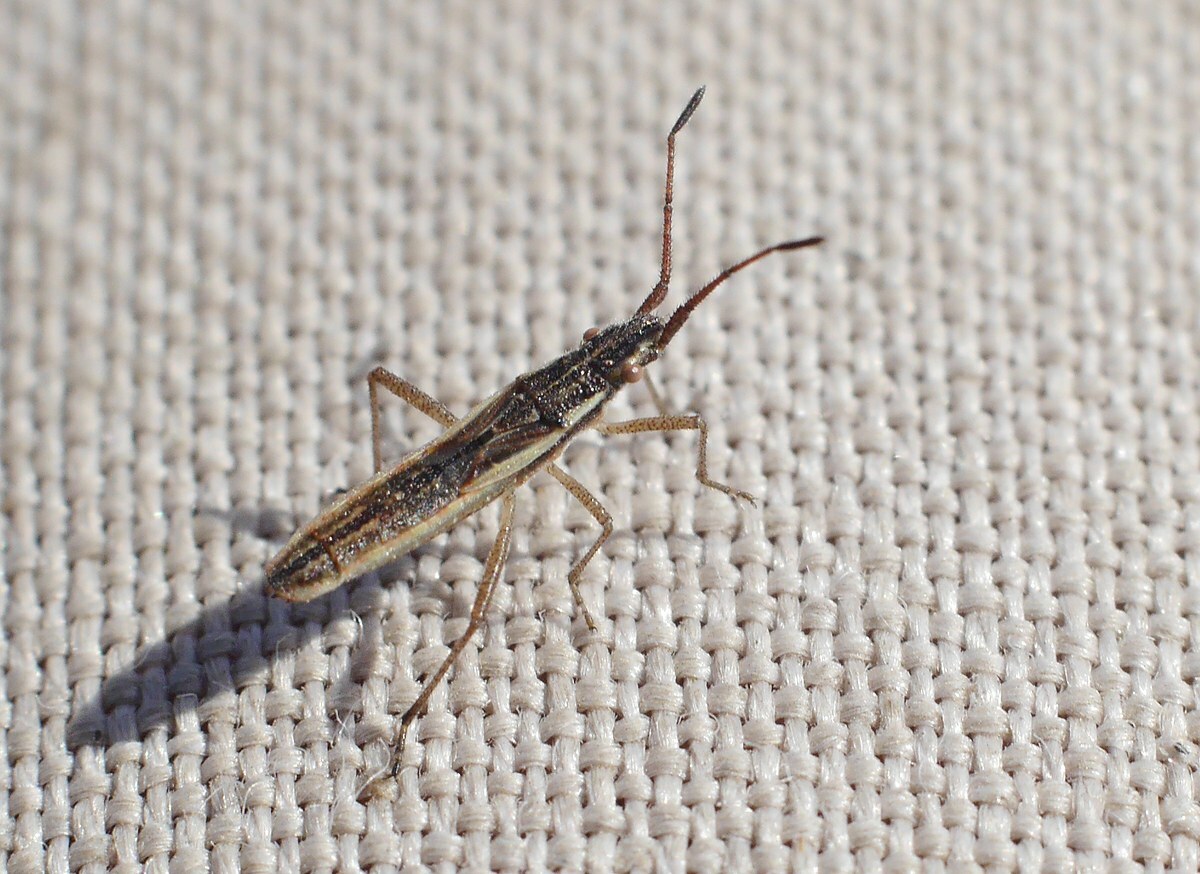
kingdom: Animalia
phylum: Arthropoda
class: Insecta
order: Hemiptera
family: Rhopalidae
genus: Myrmus
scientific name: Myrmus miriformis
